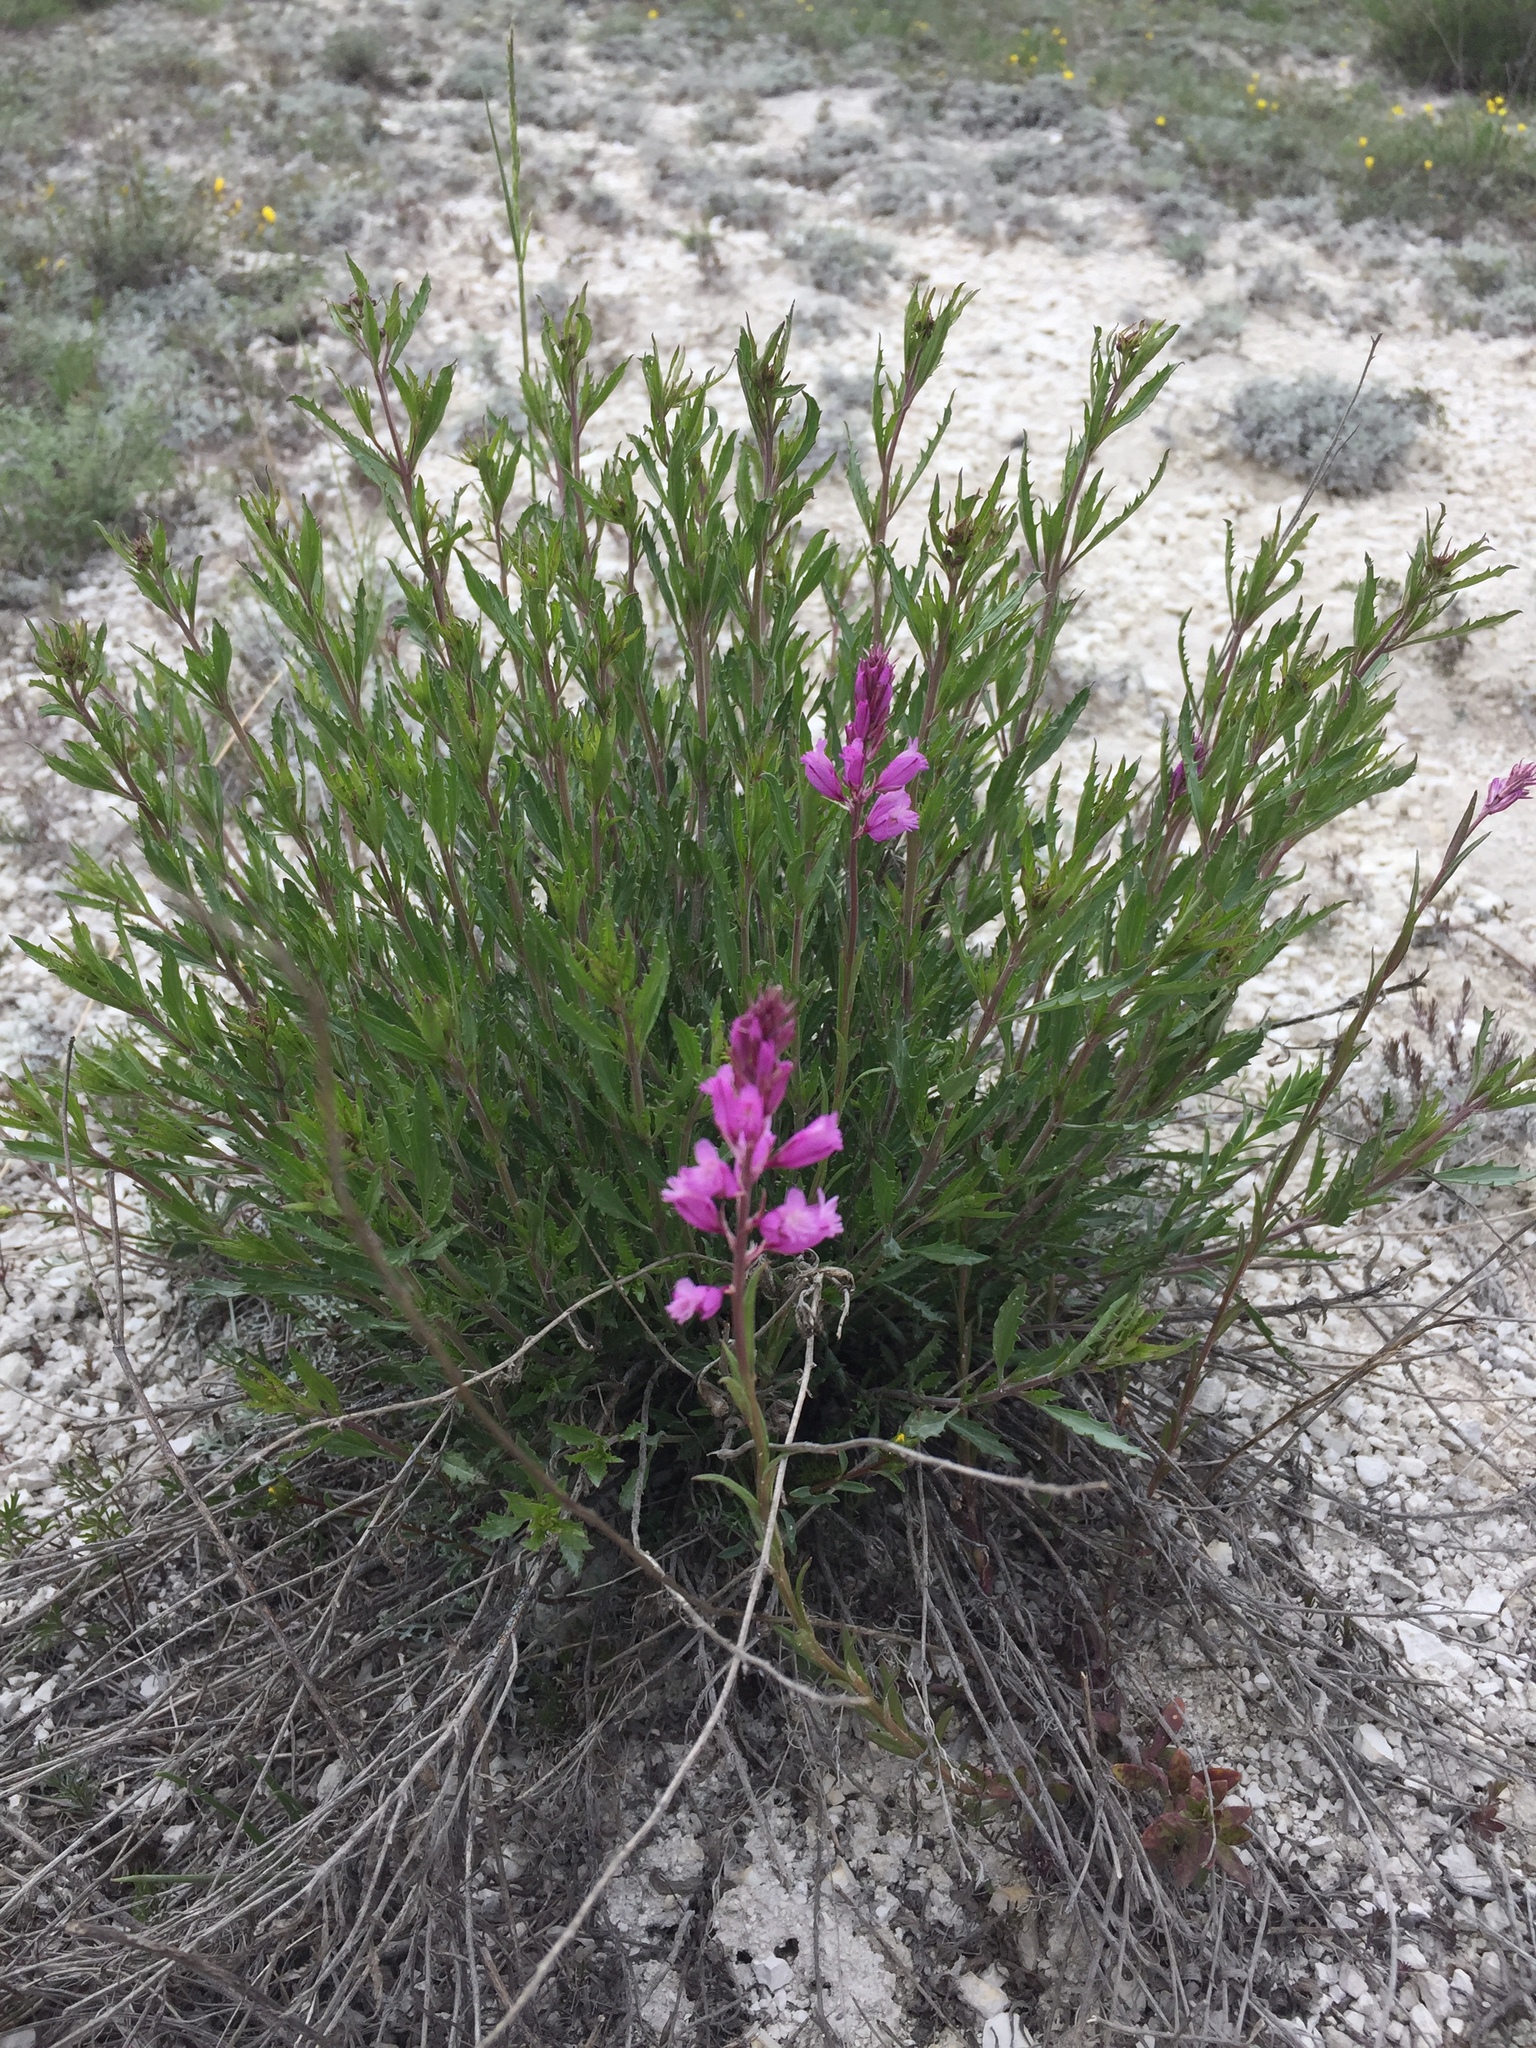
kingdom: Plantae
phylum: Tracheophyta
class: Magnoliopsida
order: Fabales
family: Polygalaceae
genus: Polygala
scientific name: Polygala nicaeensis
